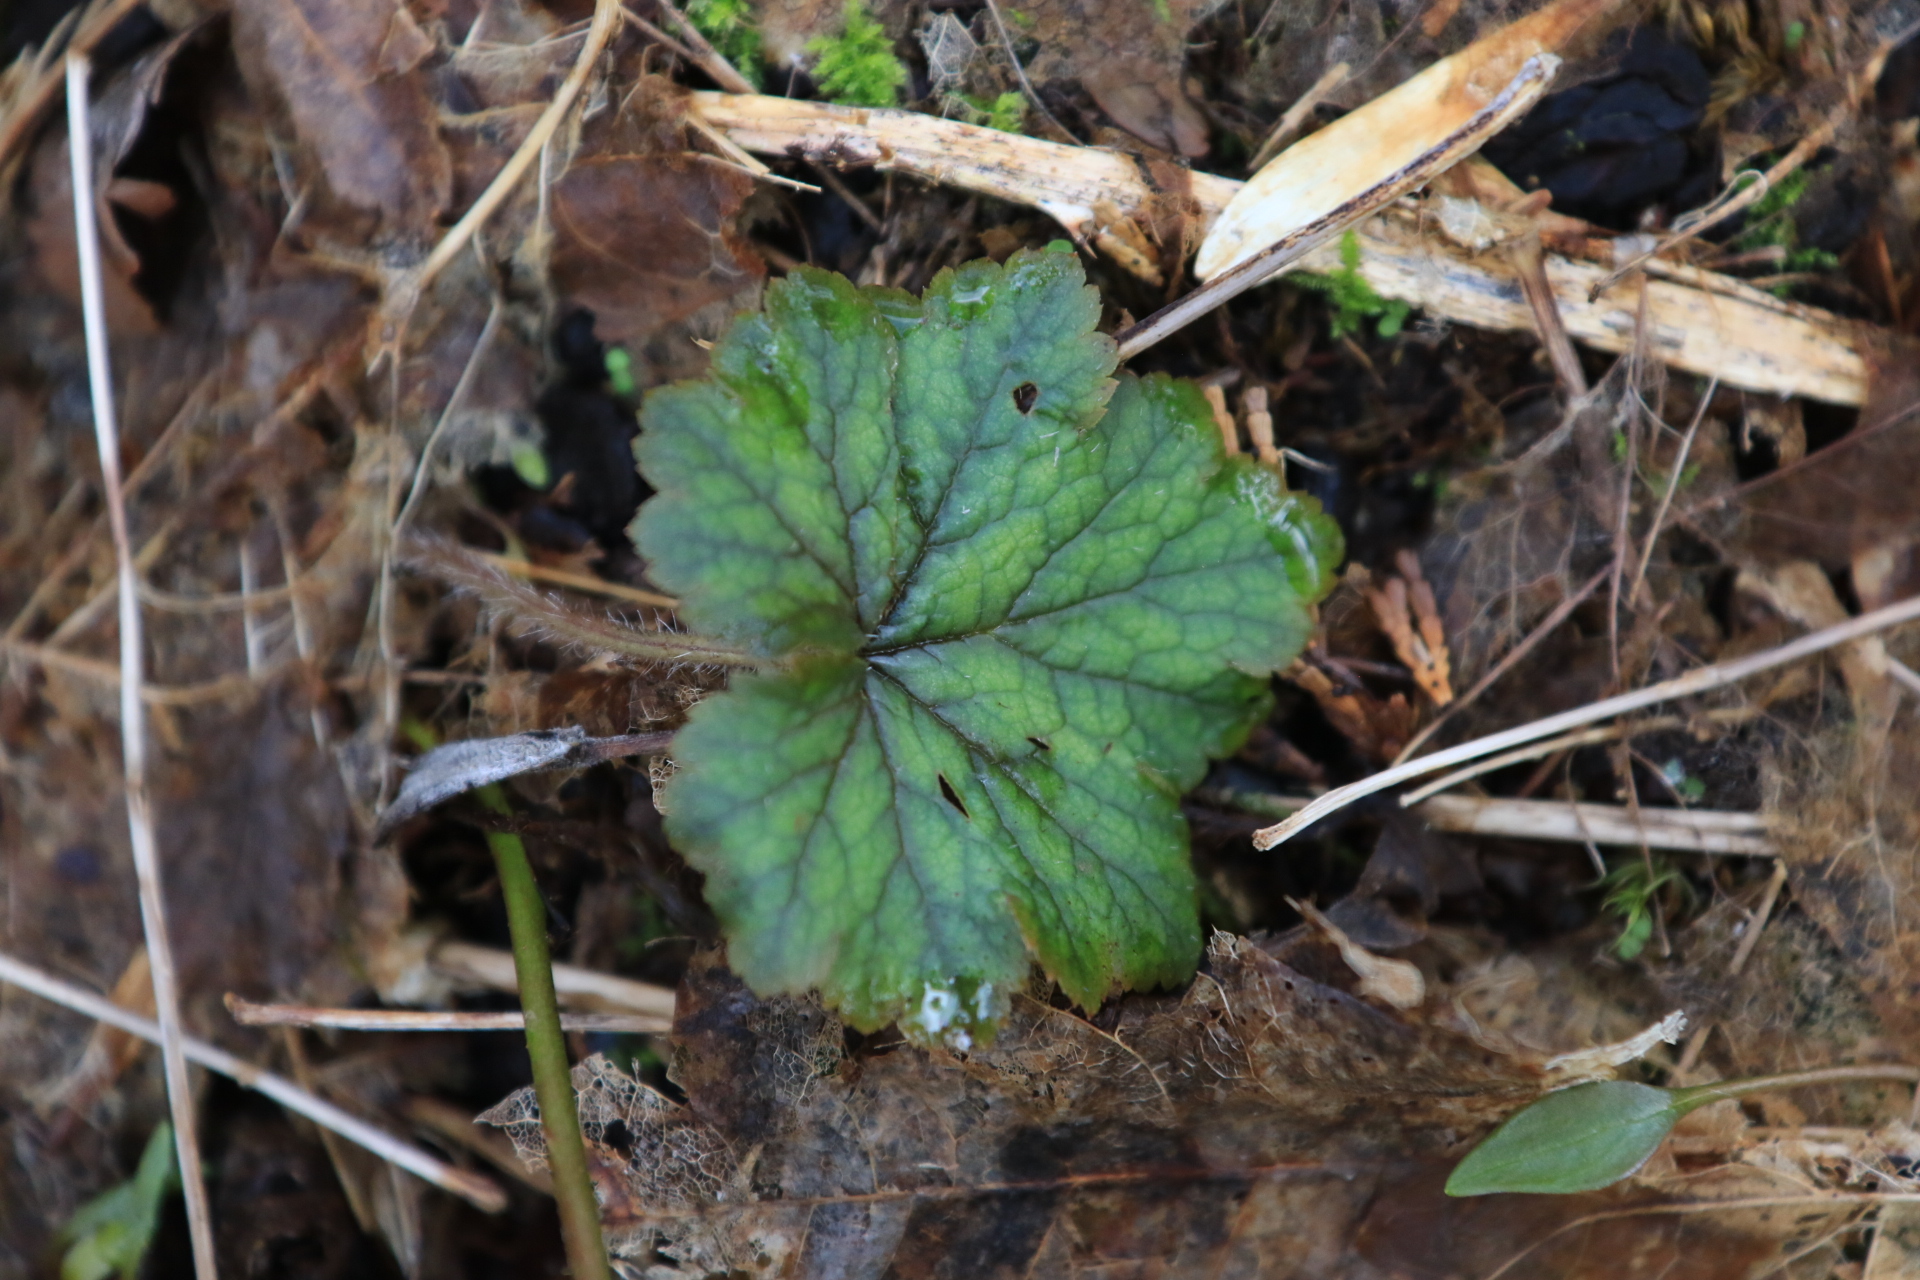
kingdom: Plantae
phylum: Tracheophyta
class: Magnoliopsida
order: Saxifragales
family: Saxifragaceae
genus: Tellima
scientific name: Tellima grandiflora
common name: Fringecups
